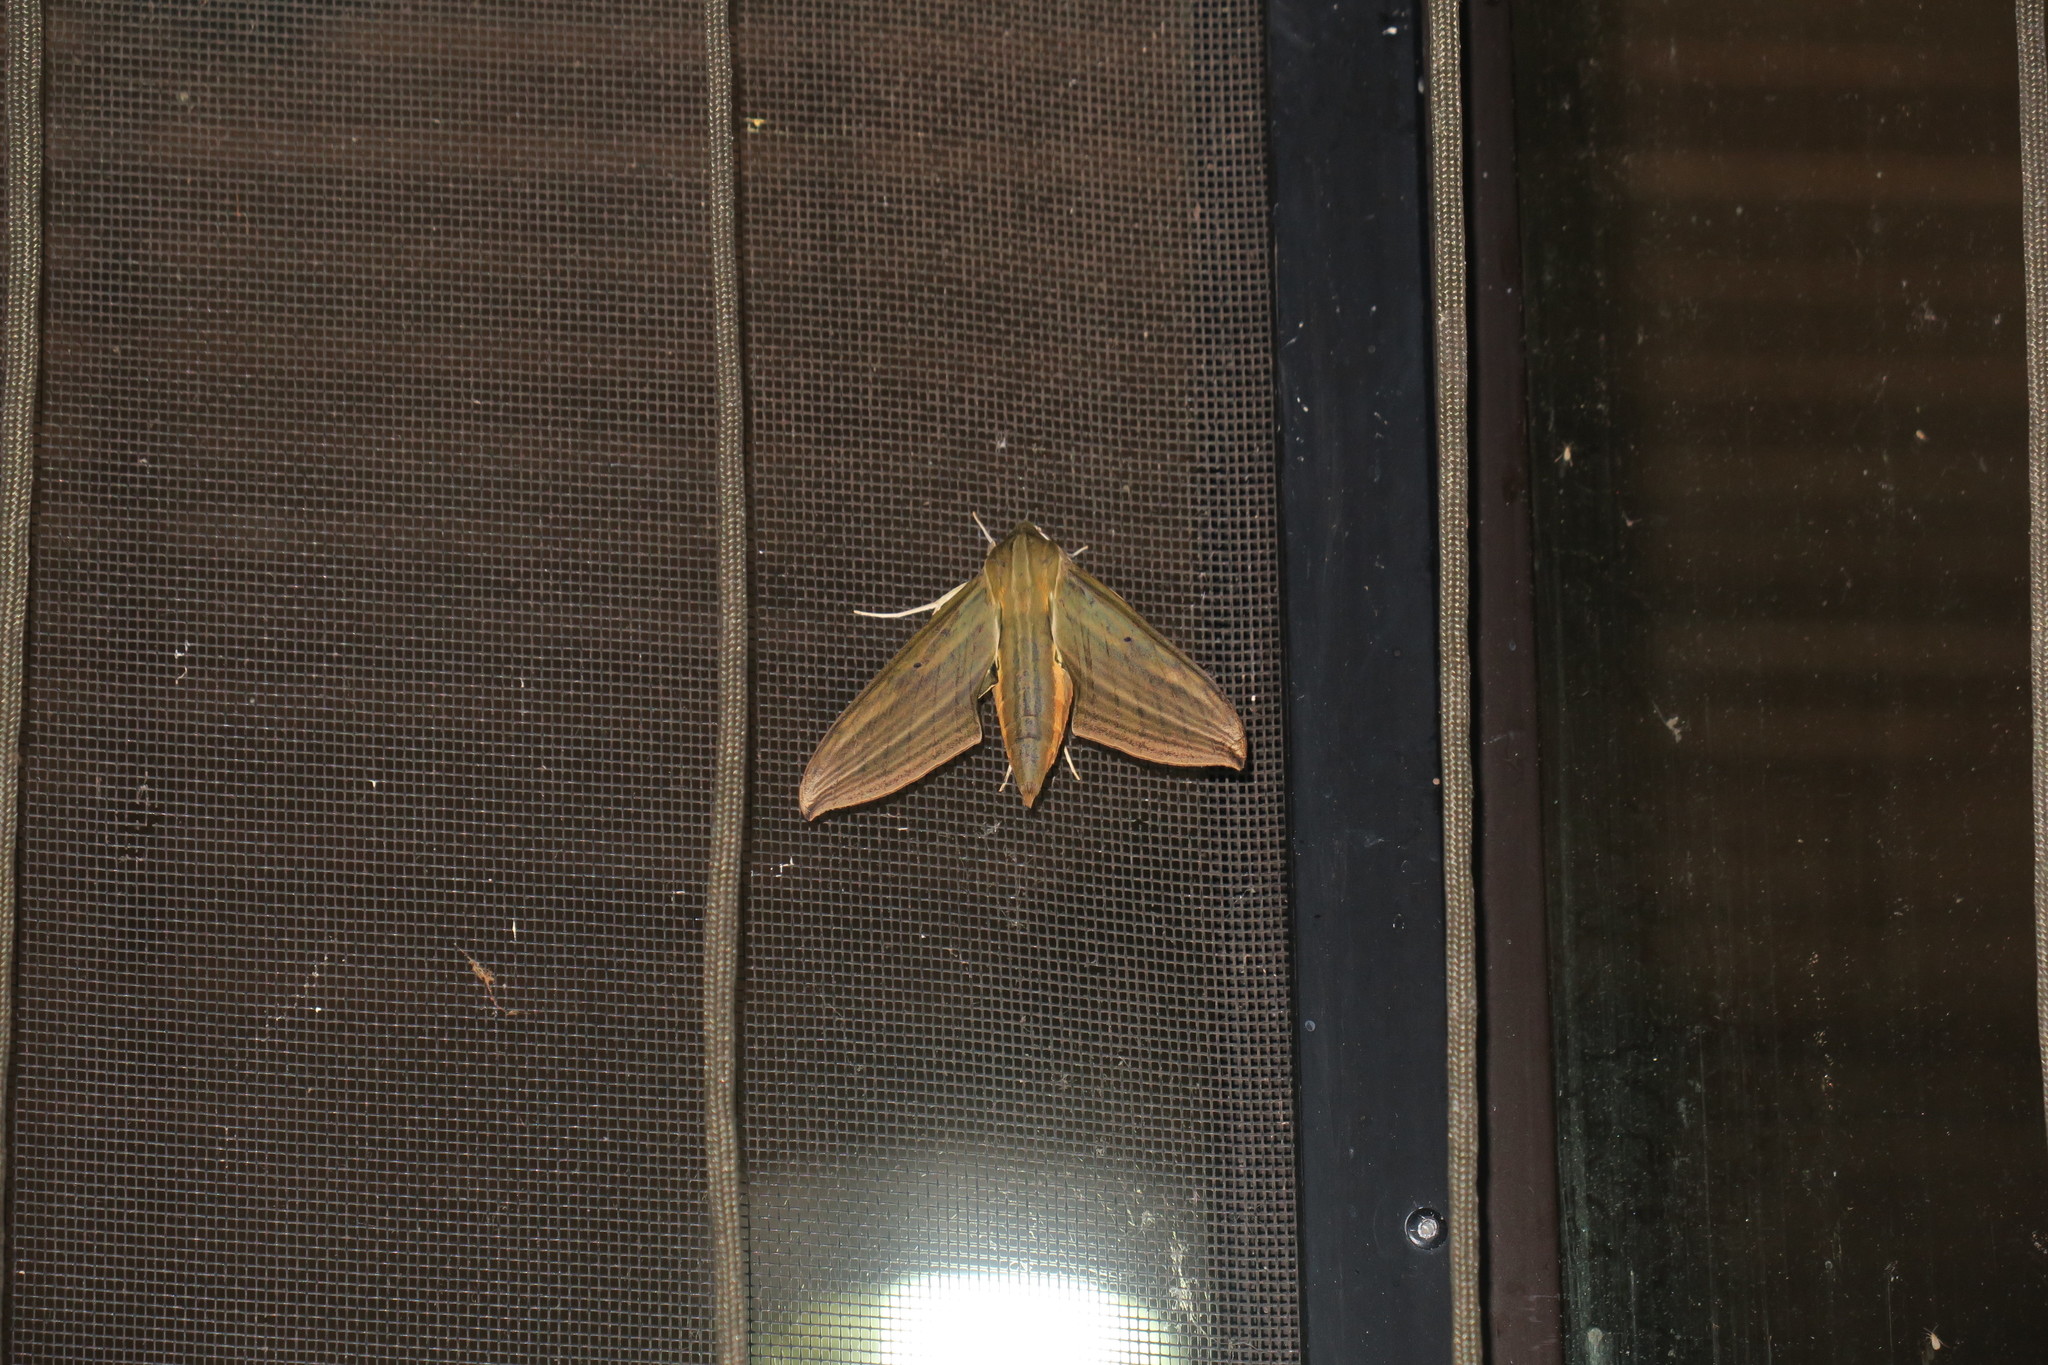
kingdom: Animalia
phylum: Arthropoda
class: Insecta
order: Lepidoptera
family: Sphingidae
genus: Xylophanes
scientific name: Xylophanes crotonis
